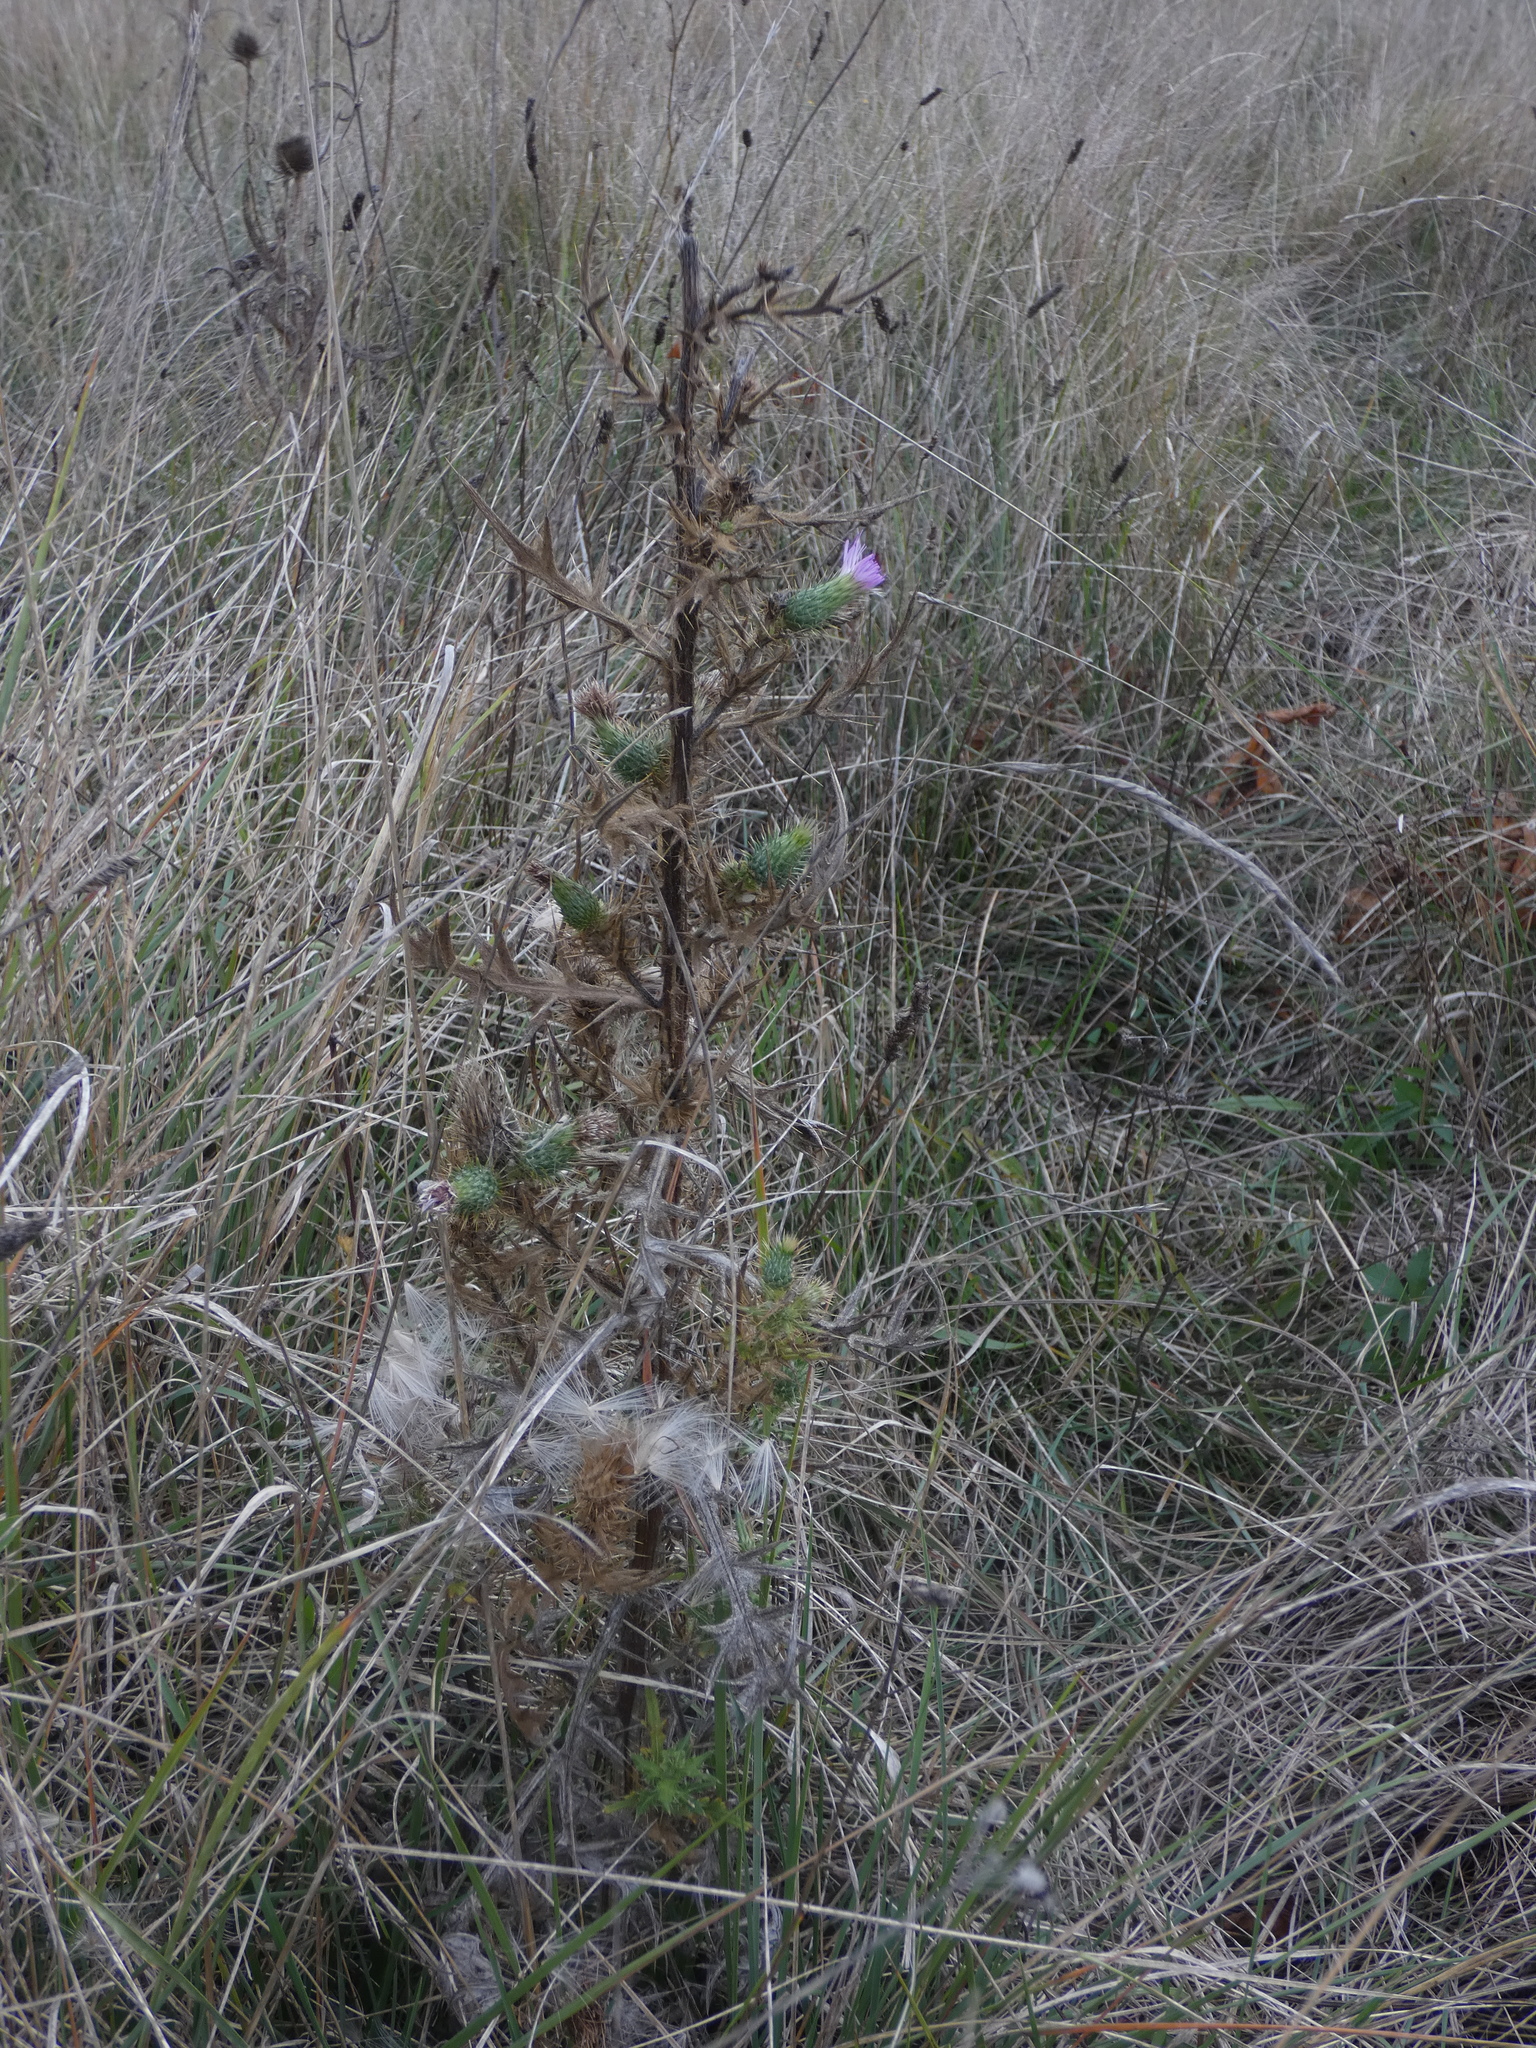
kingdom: Plantae
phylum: Tracheophyta
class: Magnoliopsida
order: Asterales
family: Asteraceae
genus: Cirsium
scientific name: Cirsium vulgare
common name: Bull thistle
